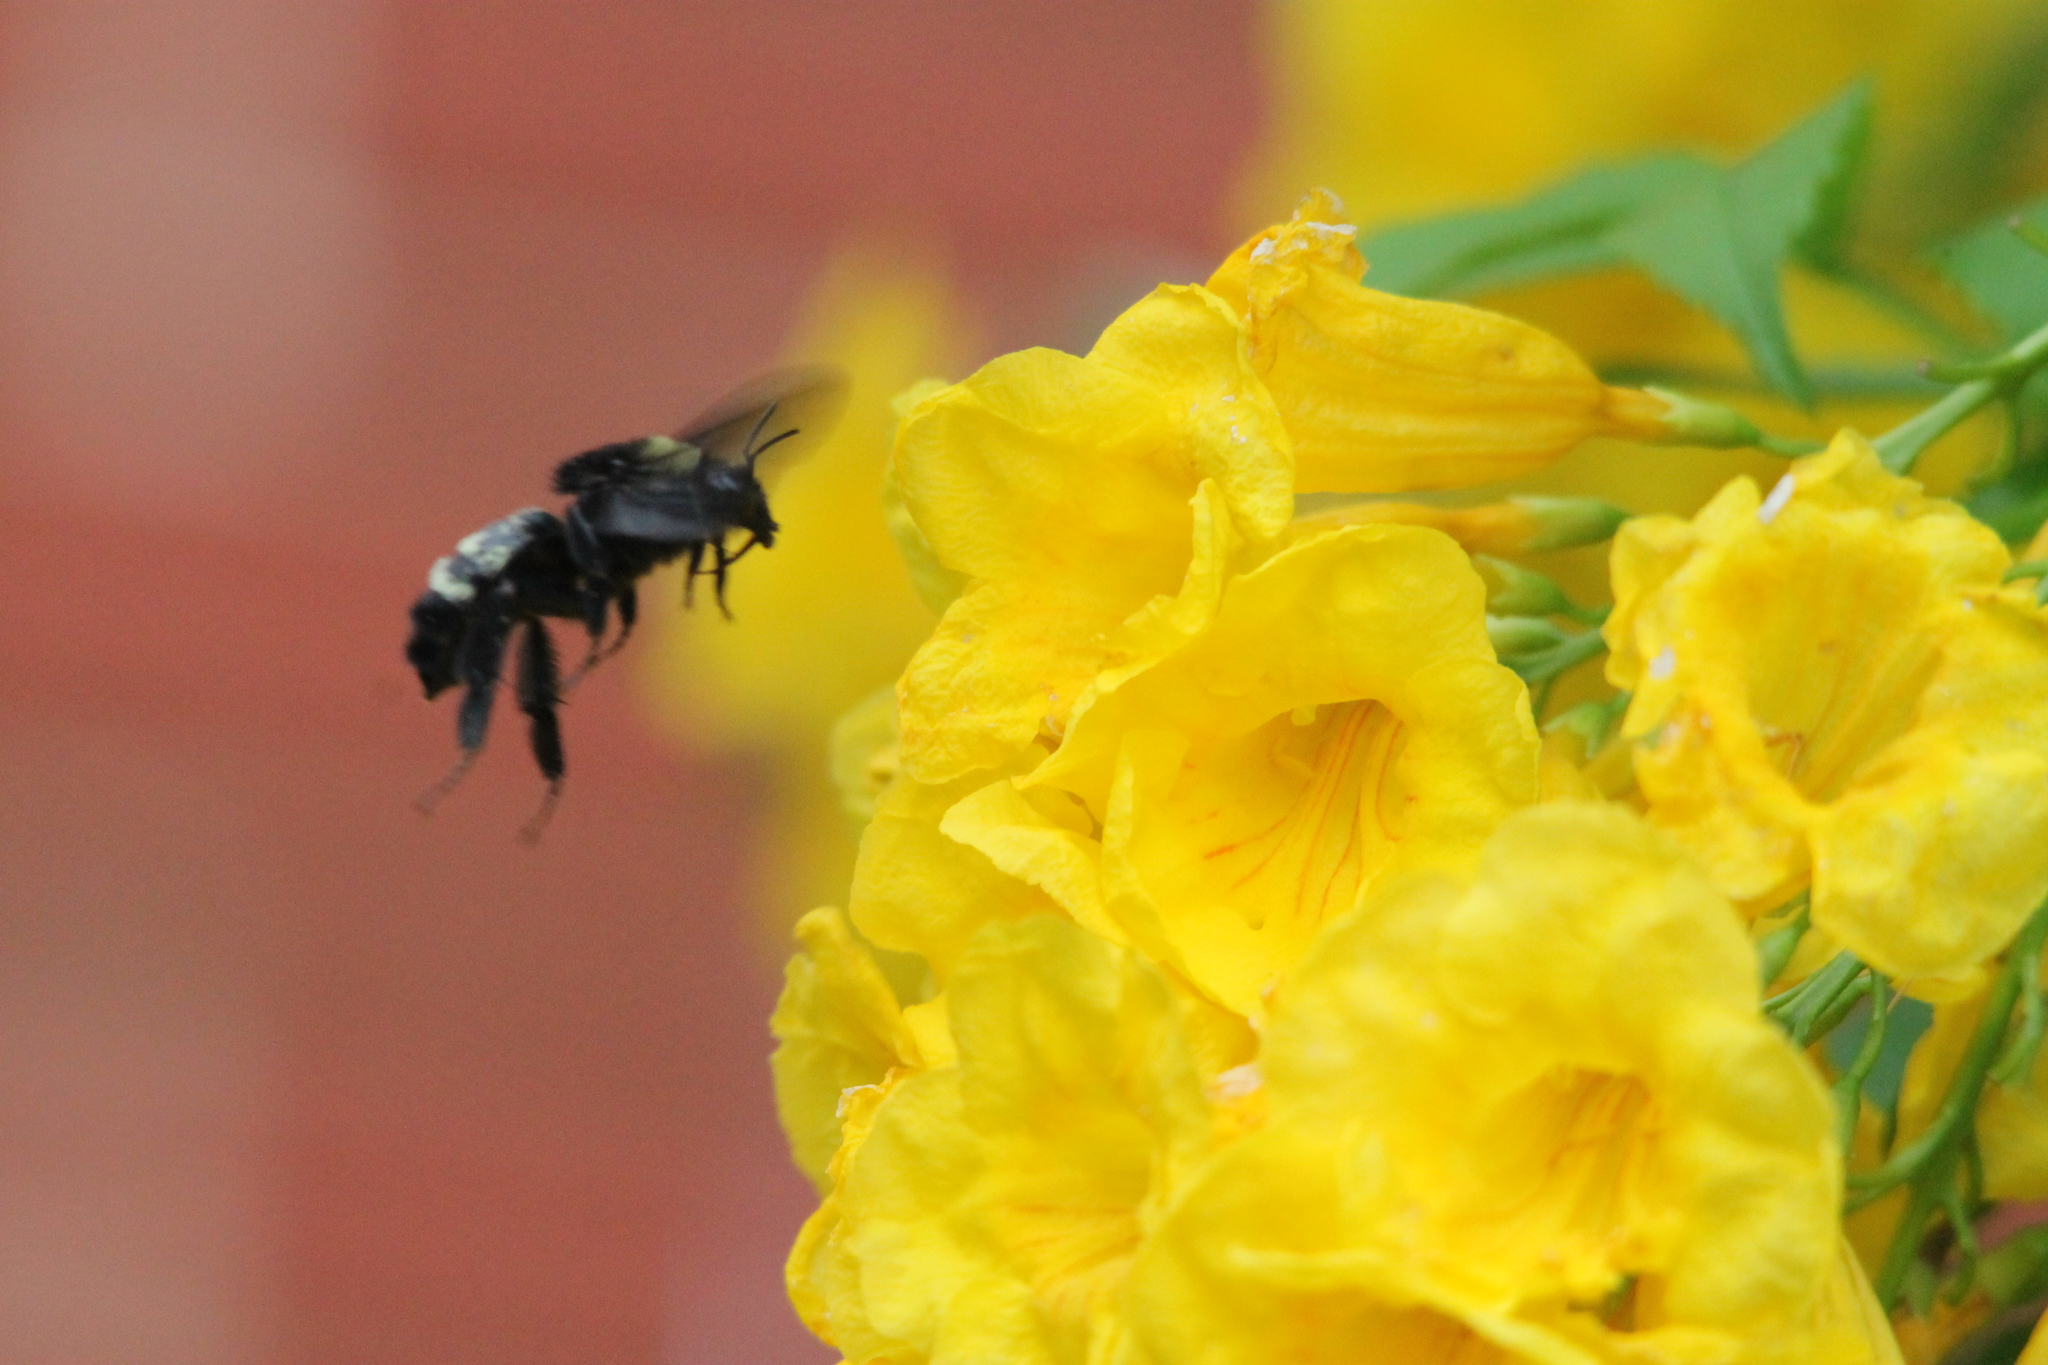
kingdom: Animalia
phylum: Arthropoda
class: Insecta
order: Hymenoptera
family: Apidae
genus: Bombus
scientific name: Bombus pensylvanicus
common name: Bumble bee
